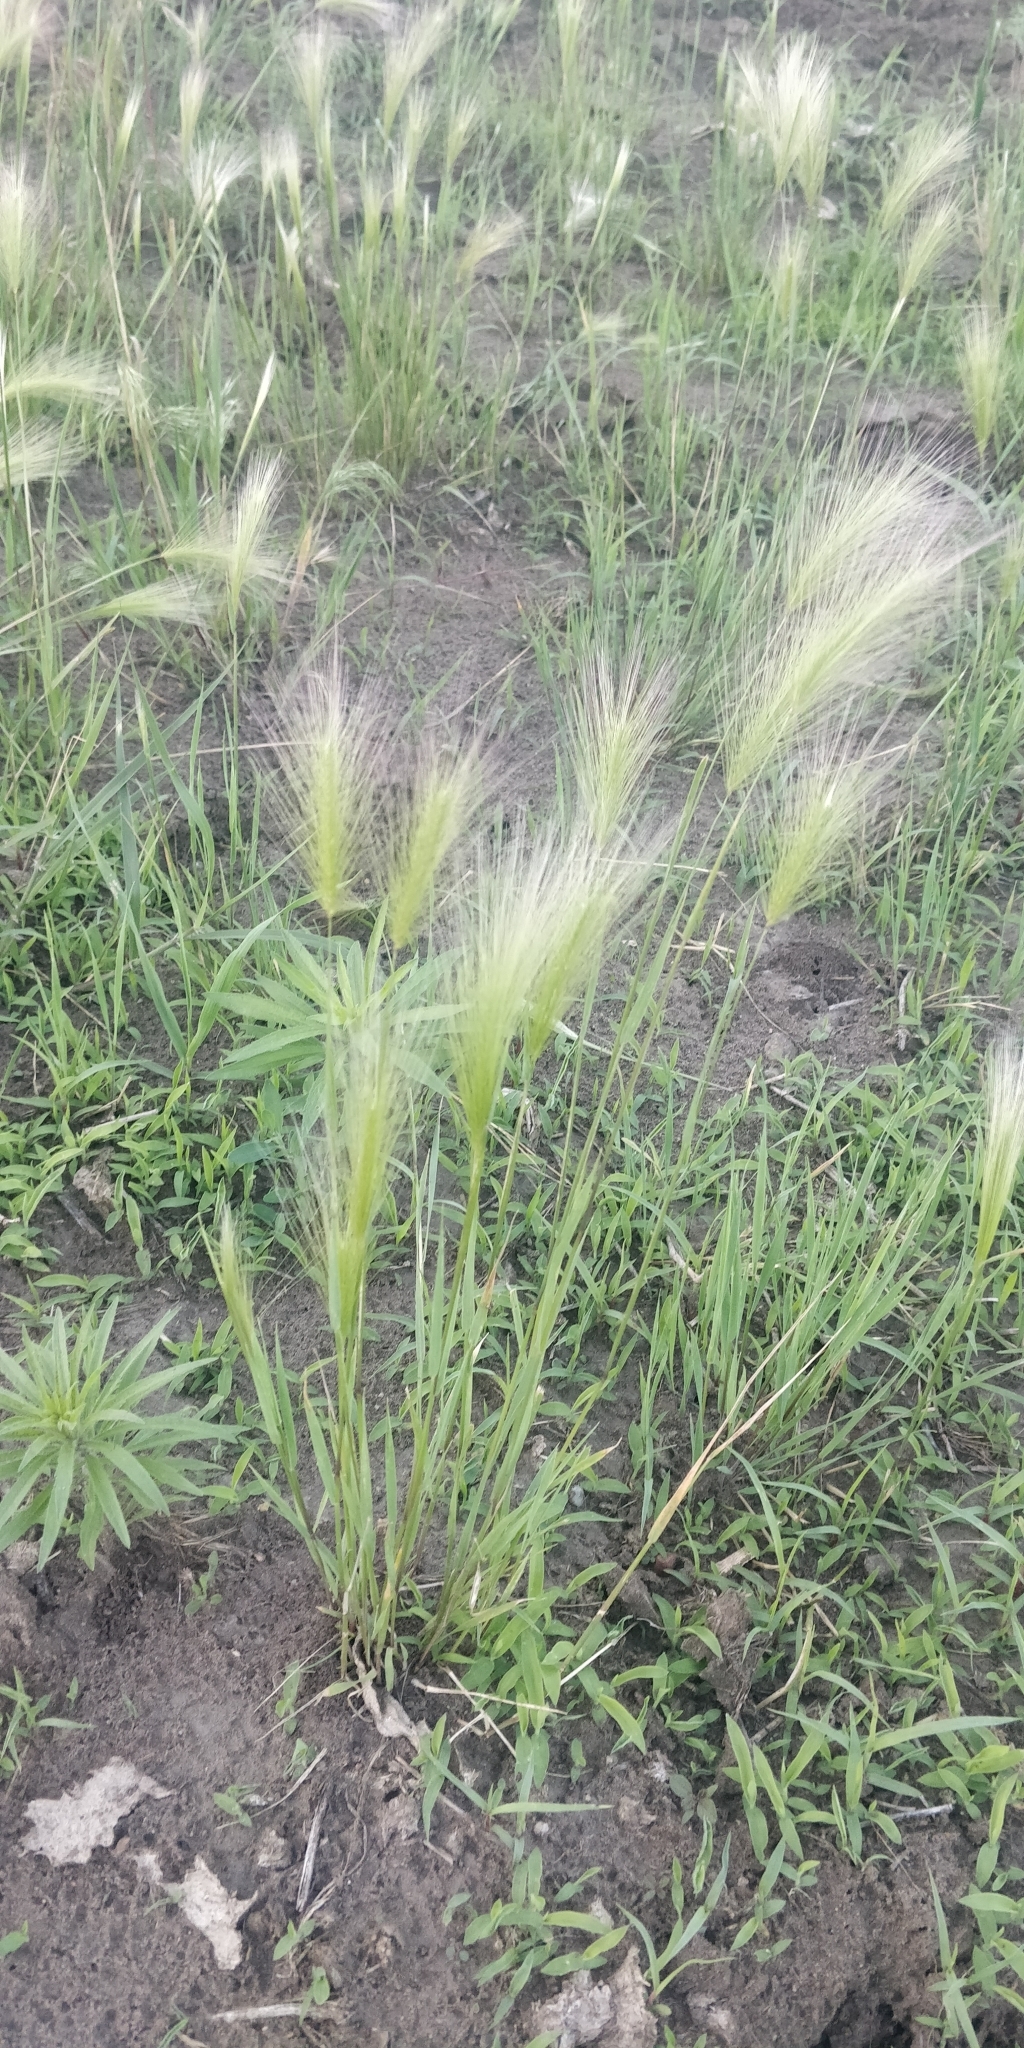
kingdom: Plantae
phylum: Tracheophyta
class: Liliopsida
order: Poales
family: Poaceae
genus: Hordeum
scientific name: Hordeum jubatum
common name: Foxtail barley
